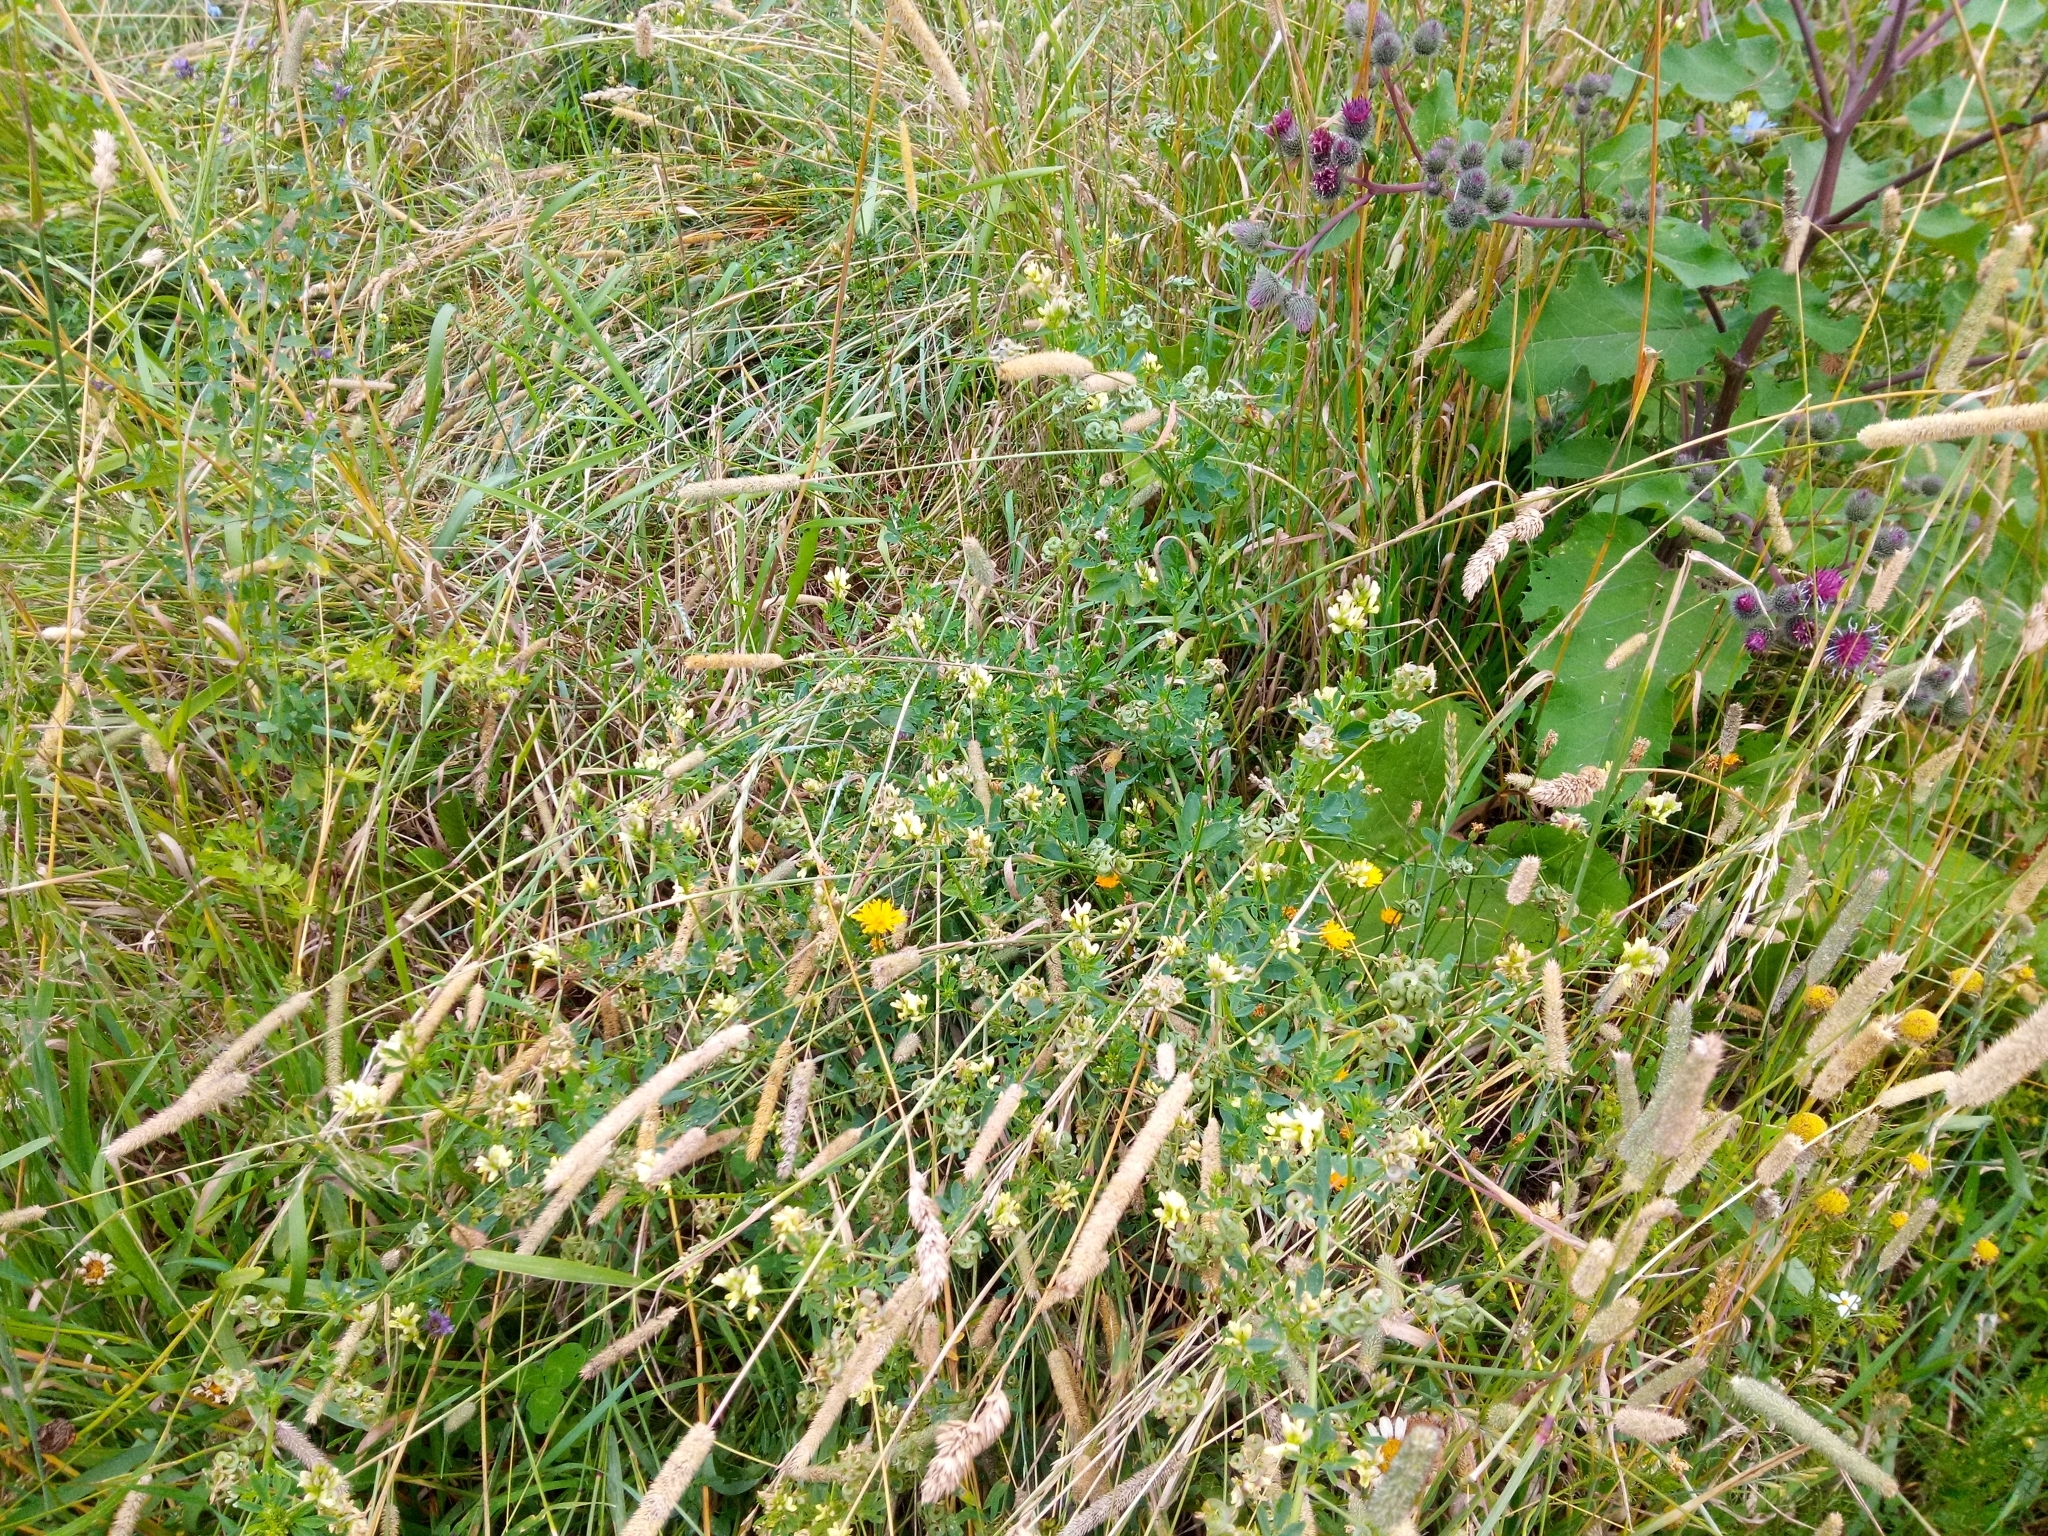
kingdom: Plantae
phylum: Tracheophyta
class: Magnoliopsida
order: Fabales
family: Fabaceae
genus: Medicago
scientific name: Medicago varia
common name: Sand lucerne
